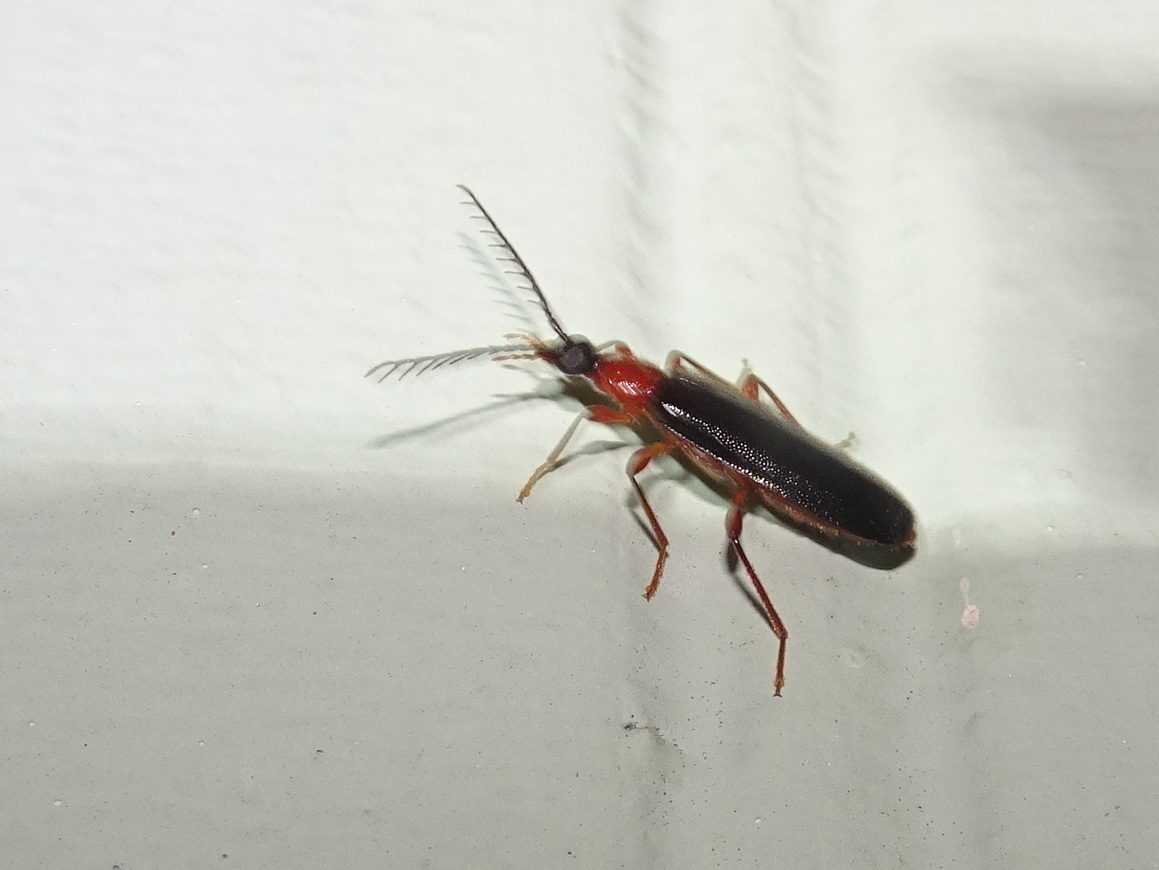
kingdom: Animalia
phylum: Arthropoda
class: Insecta
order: Coleoptera
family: Pyrochroidae
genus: Dendroides
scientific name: Dendroides canadensis
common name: Canada fire-colored beetle
